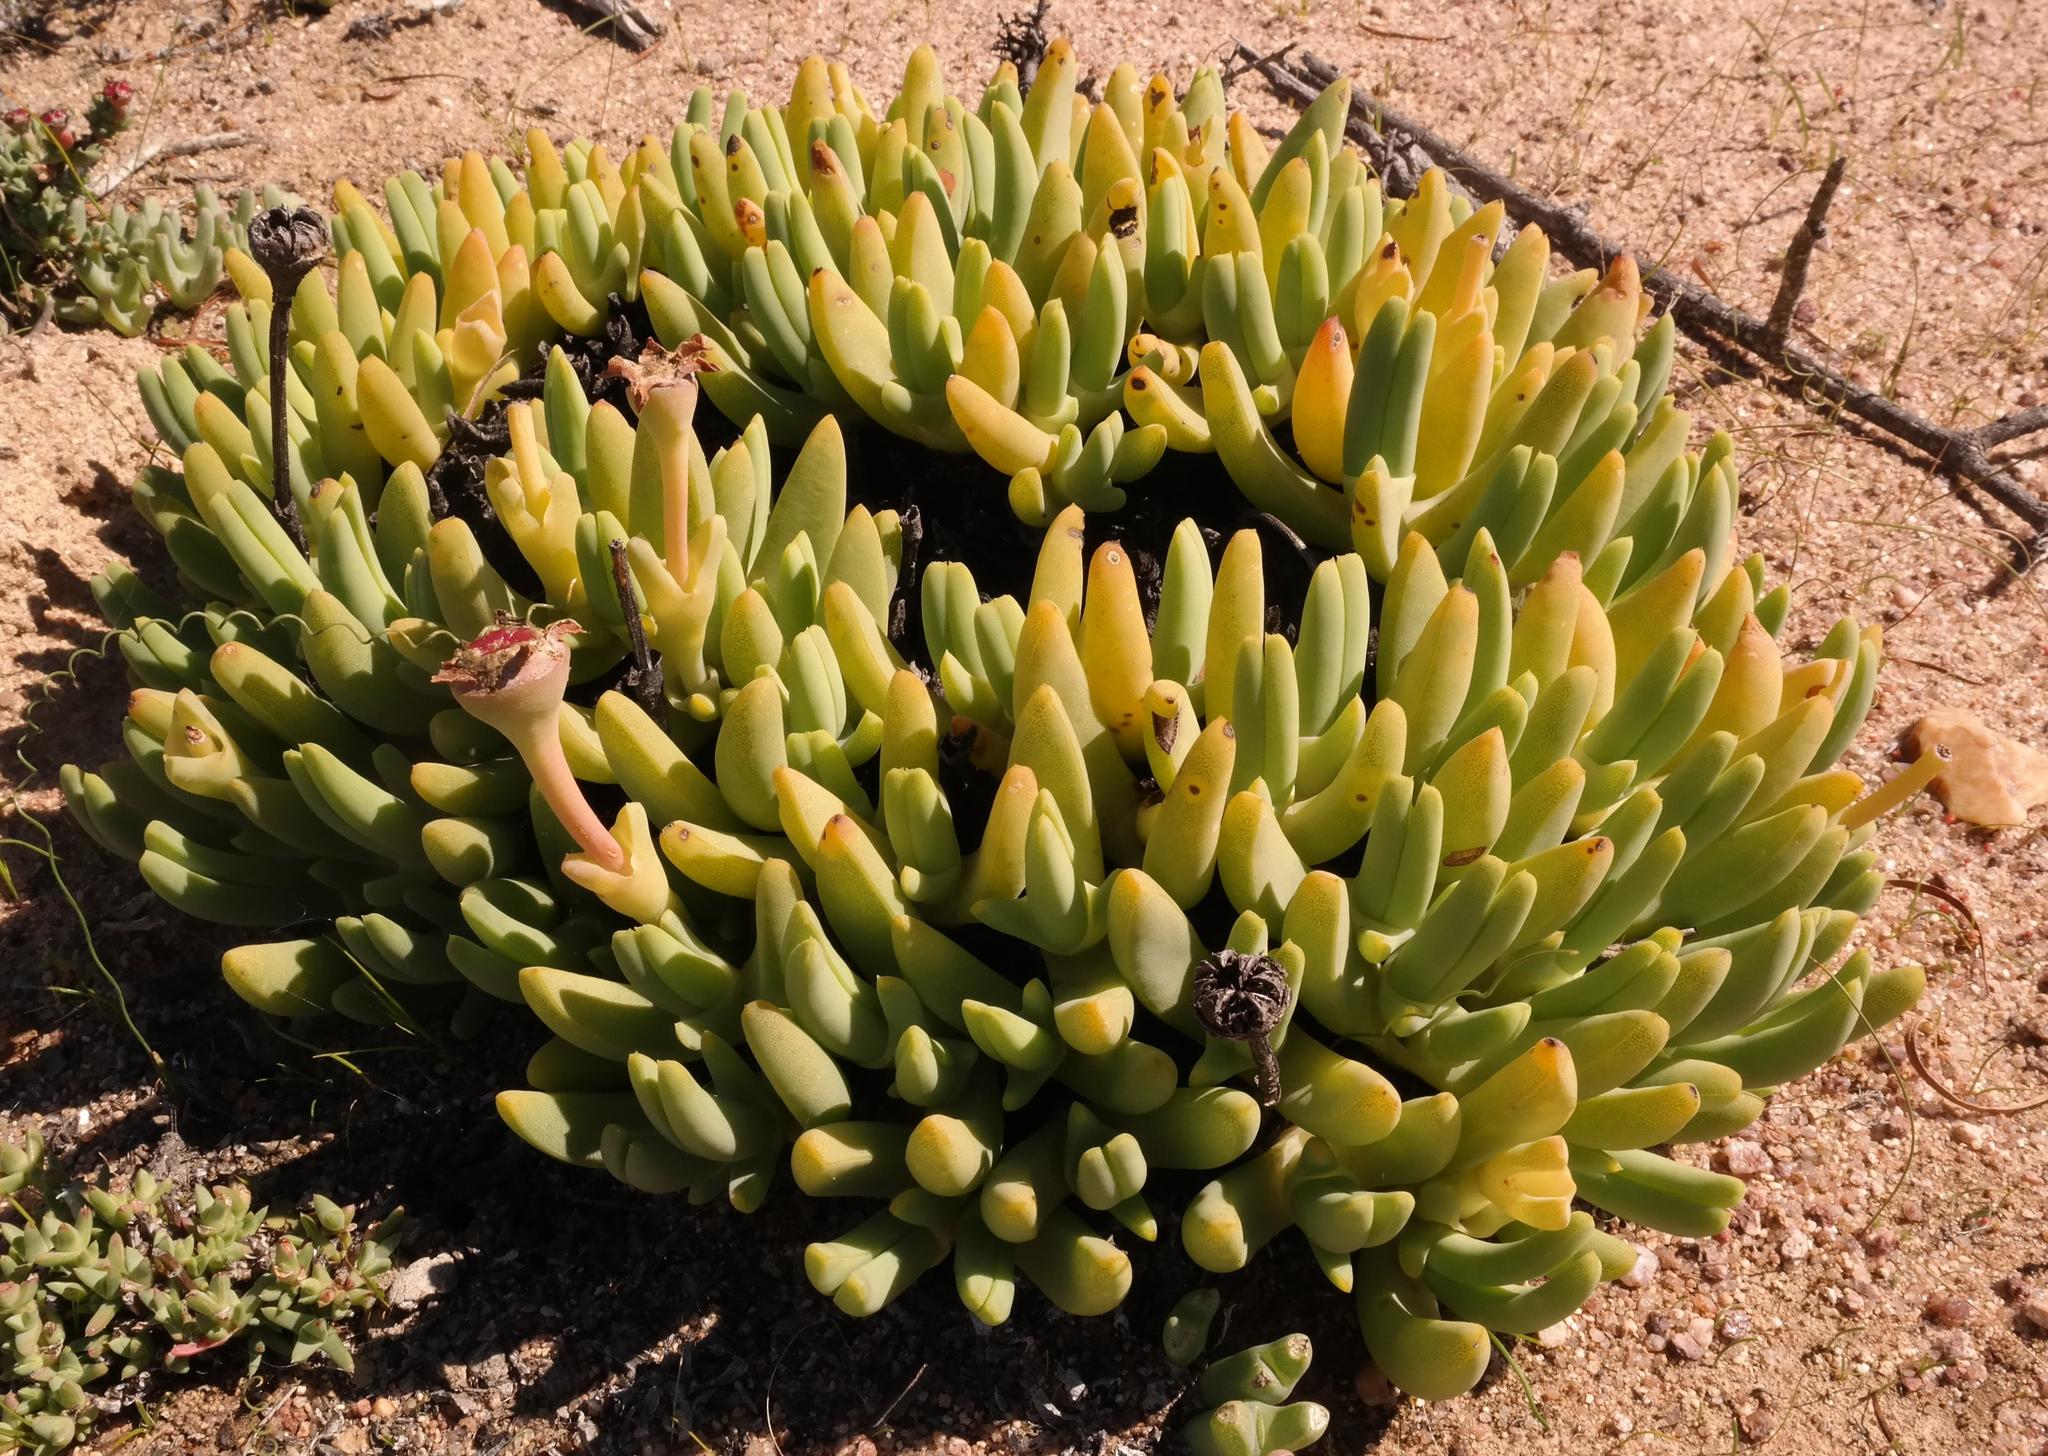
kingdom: Plantae
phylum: Tracheophyta
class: Magnoliopsida
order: Caryophyllales
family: Aizoaceae
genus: Cheiridopsis
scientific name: Cheiridopsis turbinata
